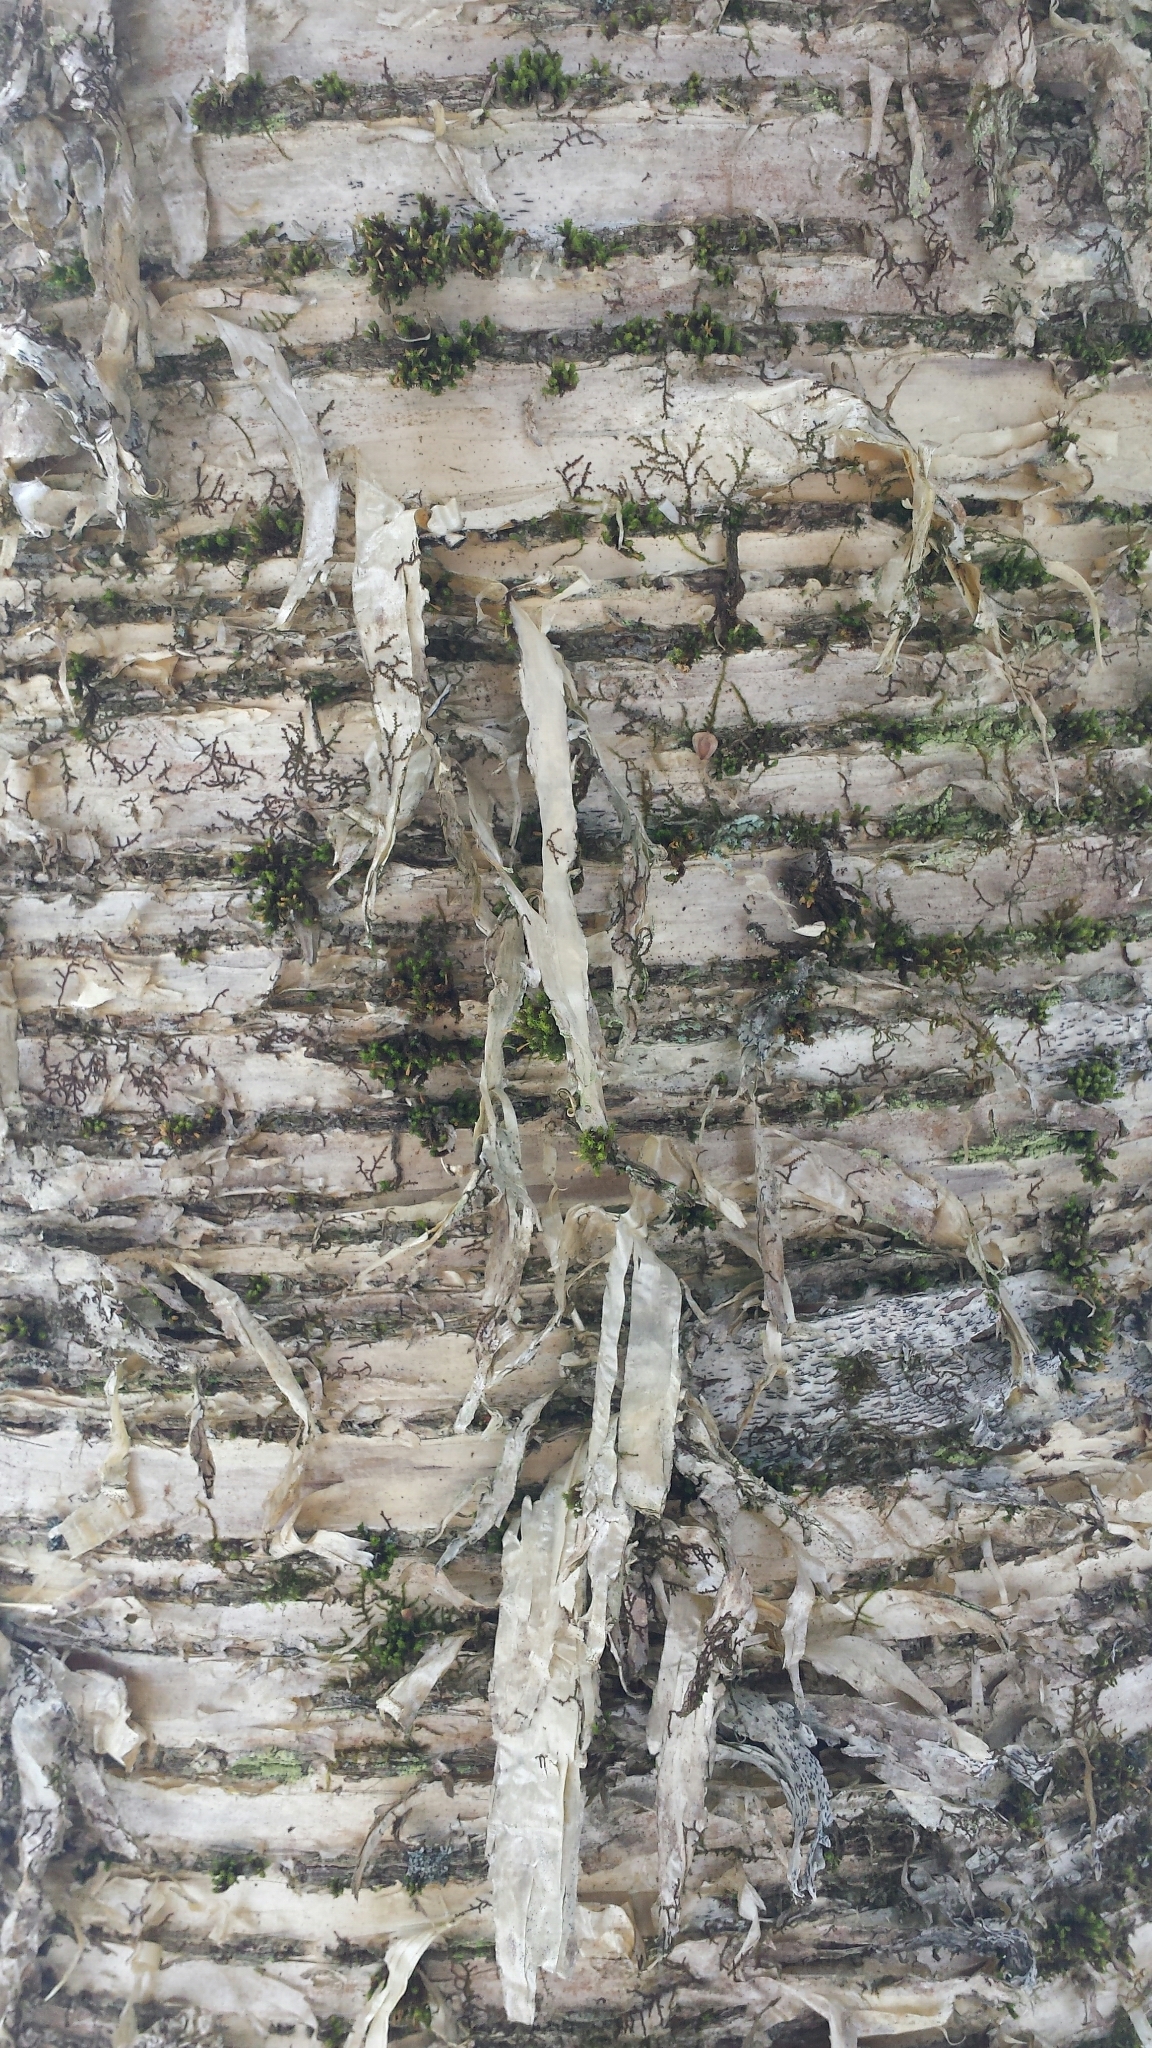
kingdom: Plantae
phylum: Tracheophyta
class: Magnoliopsida
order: Fagales
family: Betulaceae
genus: Betula
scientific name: Betula alleghaniensis
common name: Yellow birch
